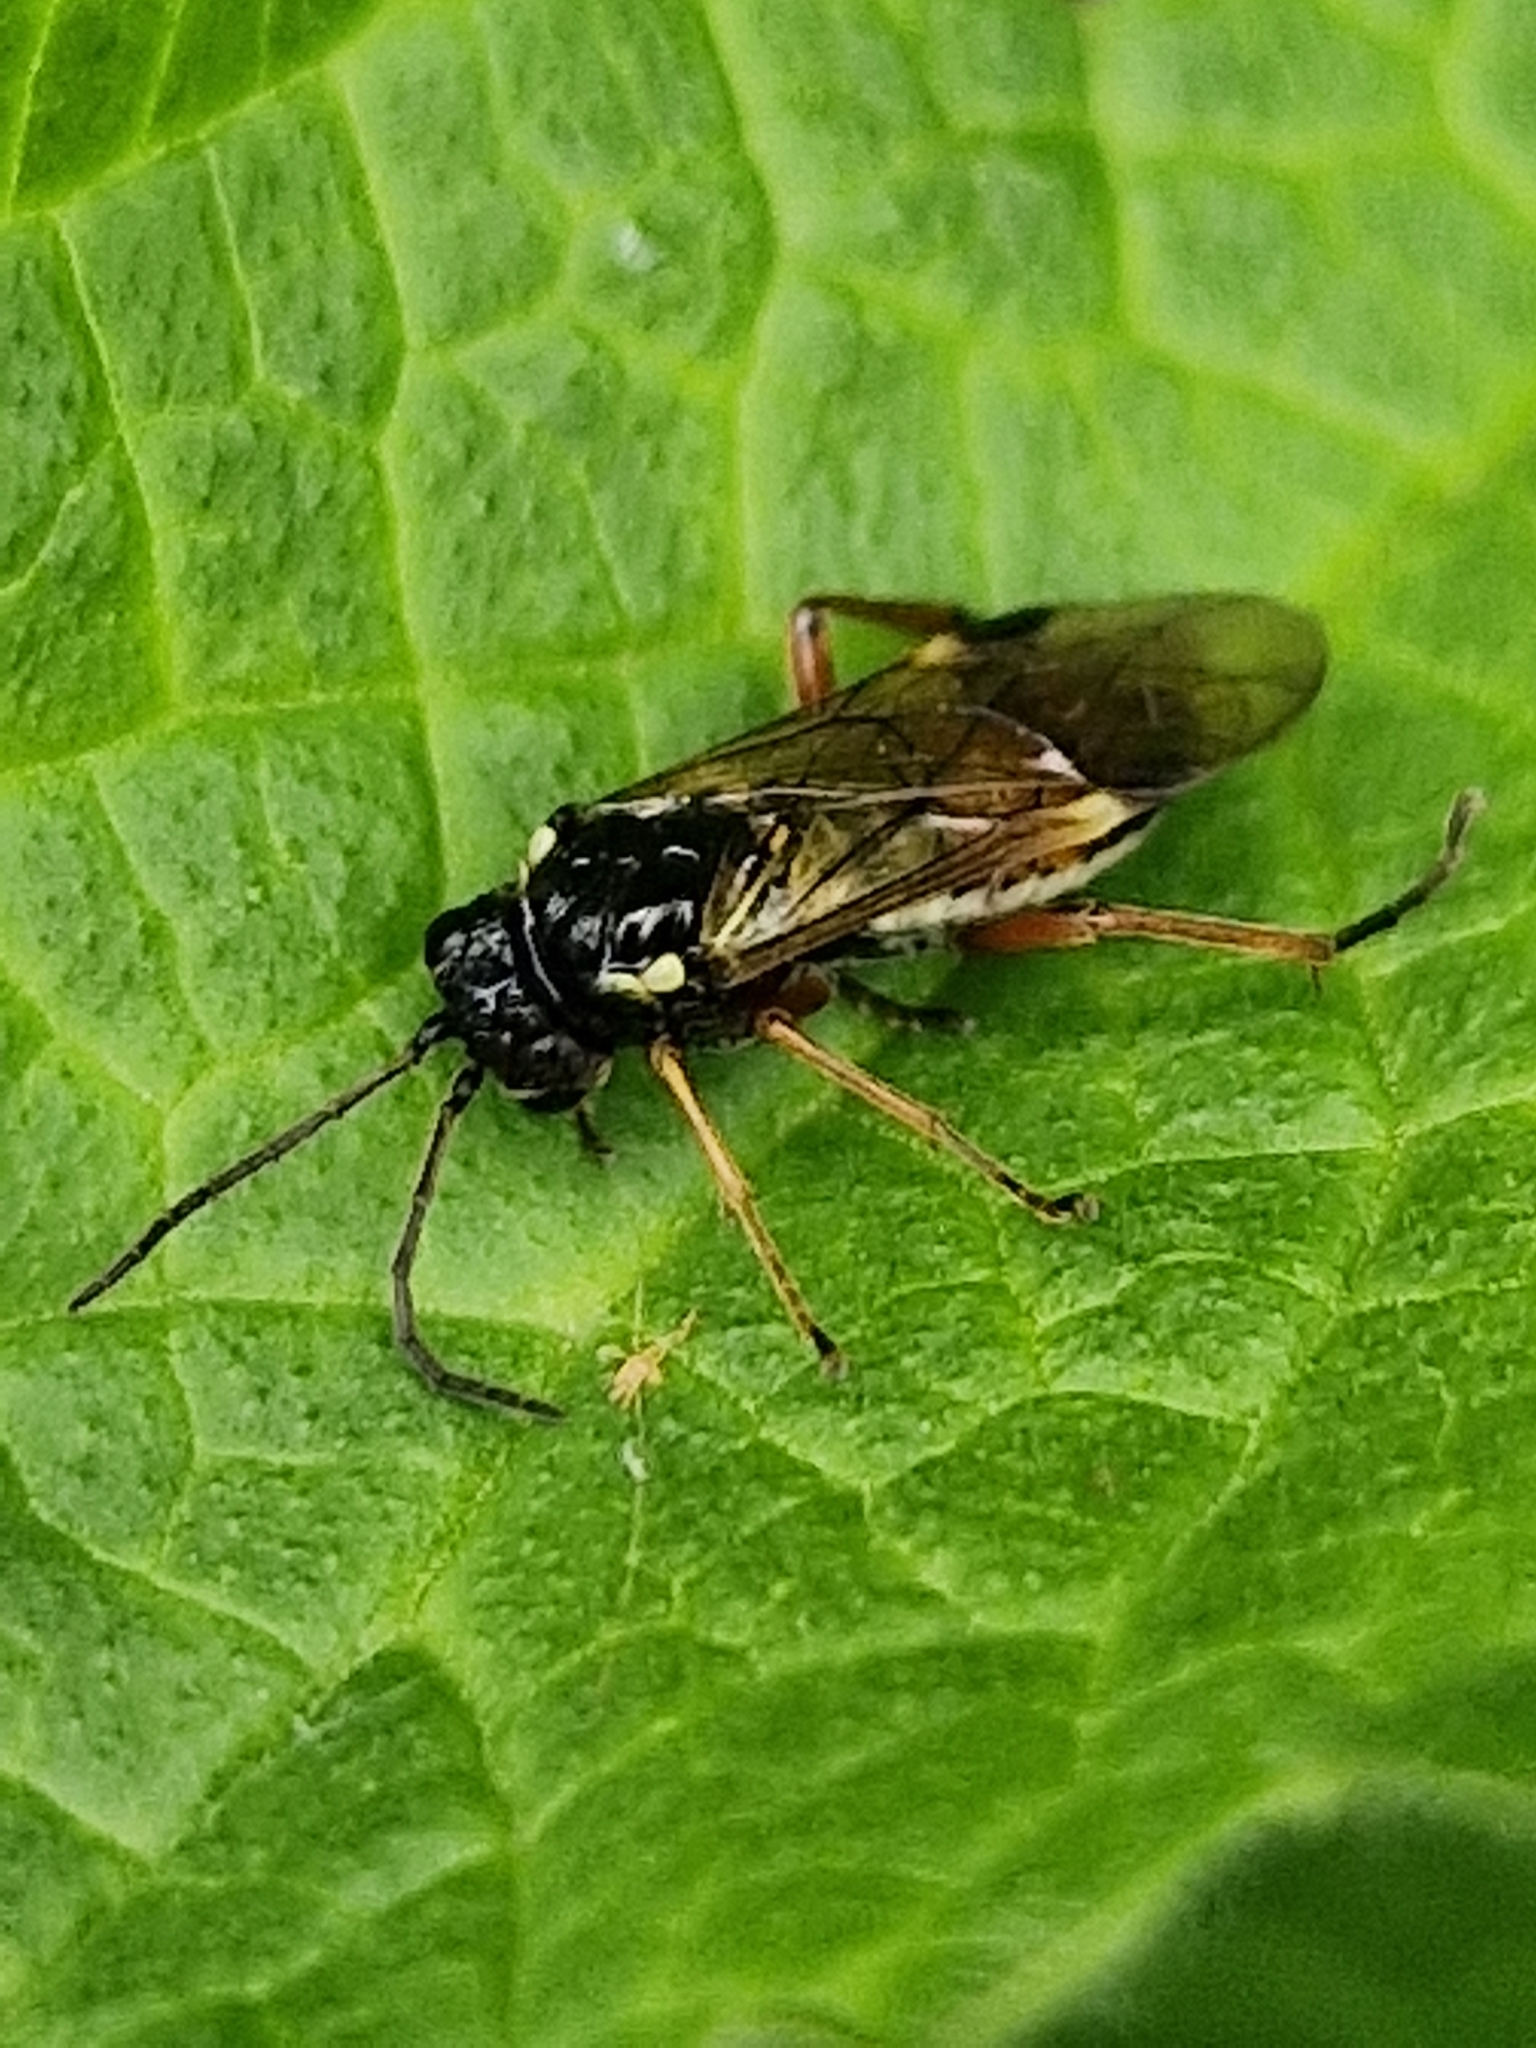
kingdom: Animalia
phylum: Arthropoda
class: Insecta
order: Hymenoptera
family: Tenthredinidae
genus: Aglaostigma
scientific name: Aglaostigma fulvipes
